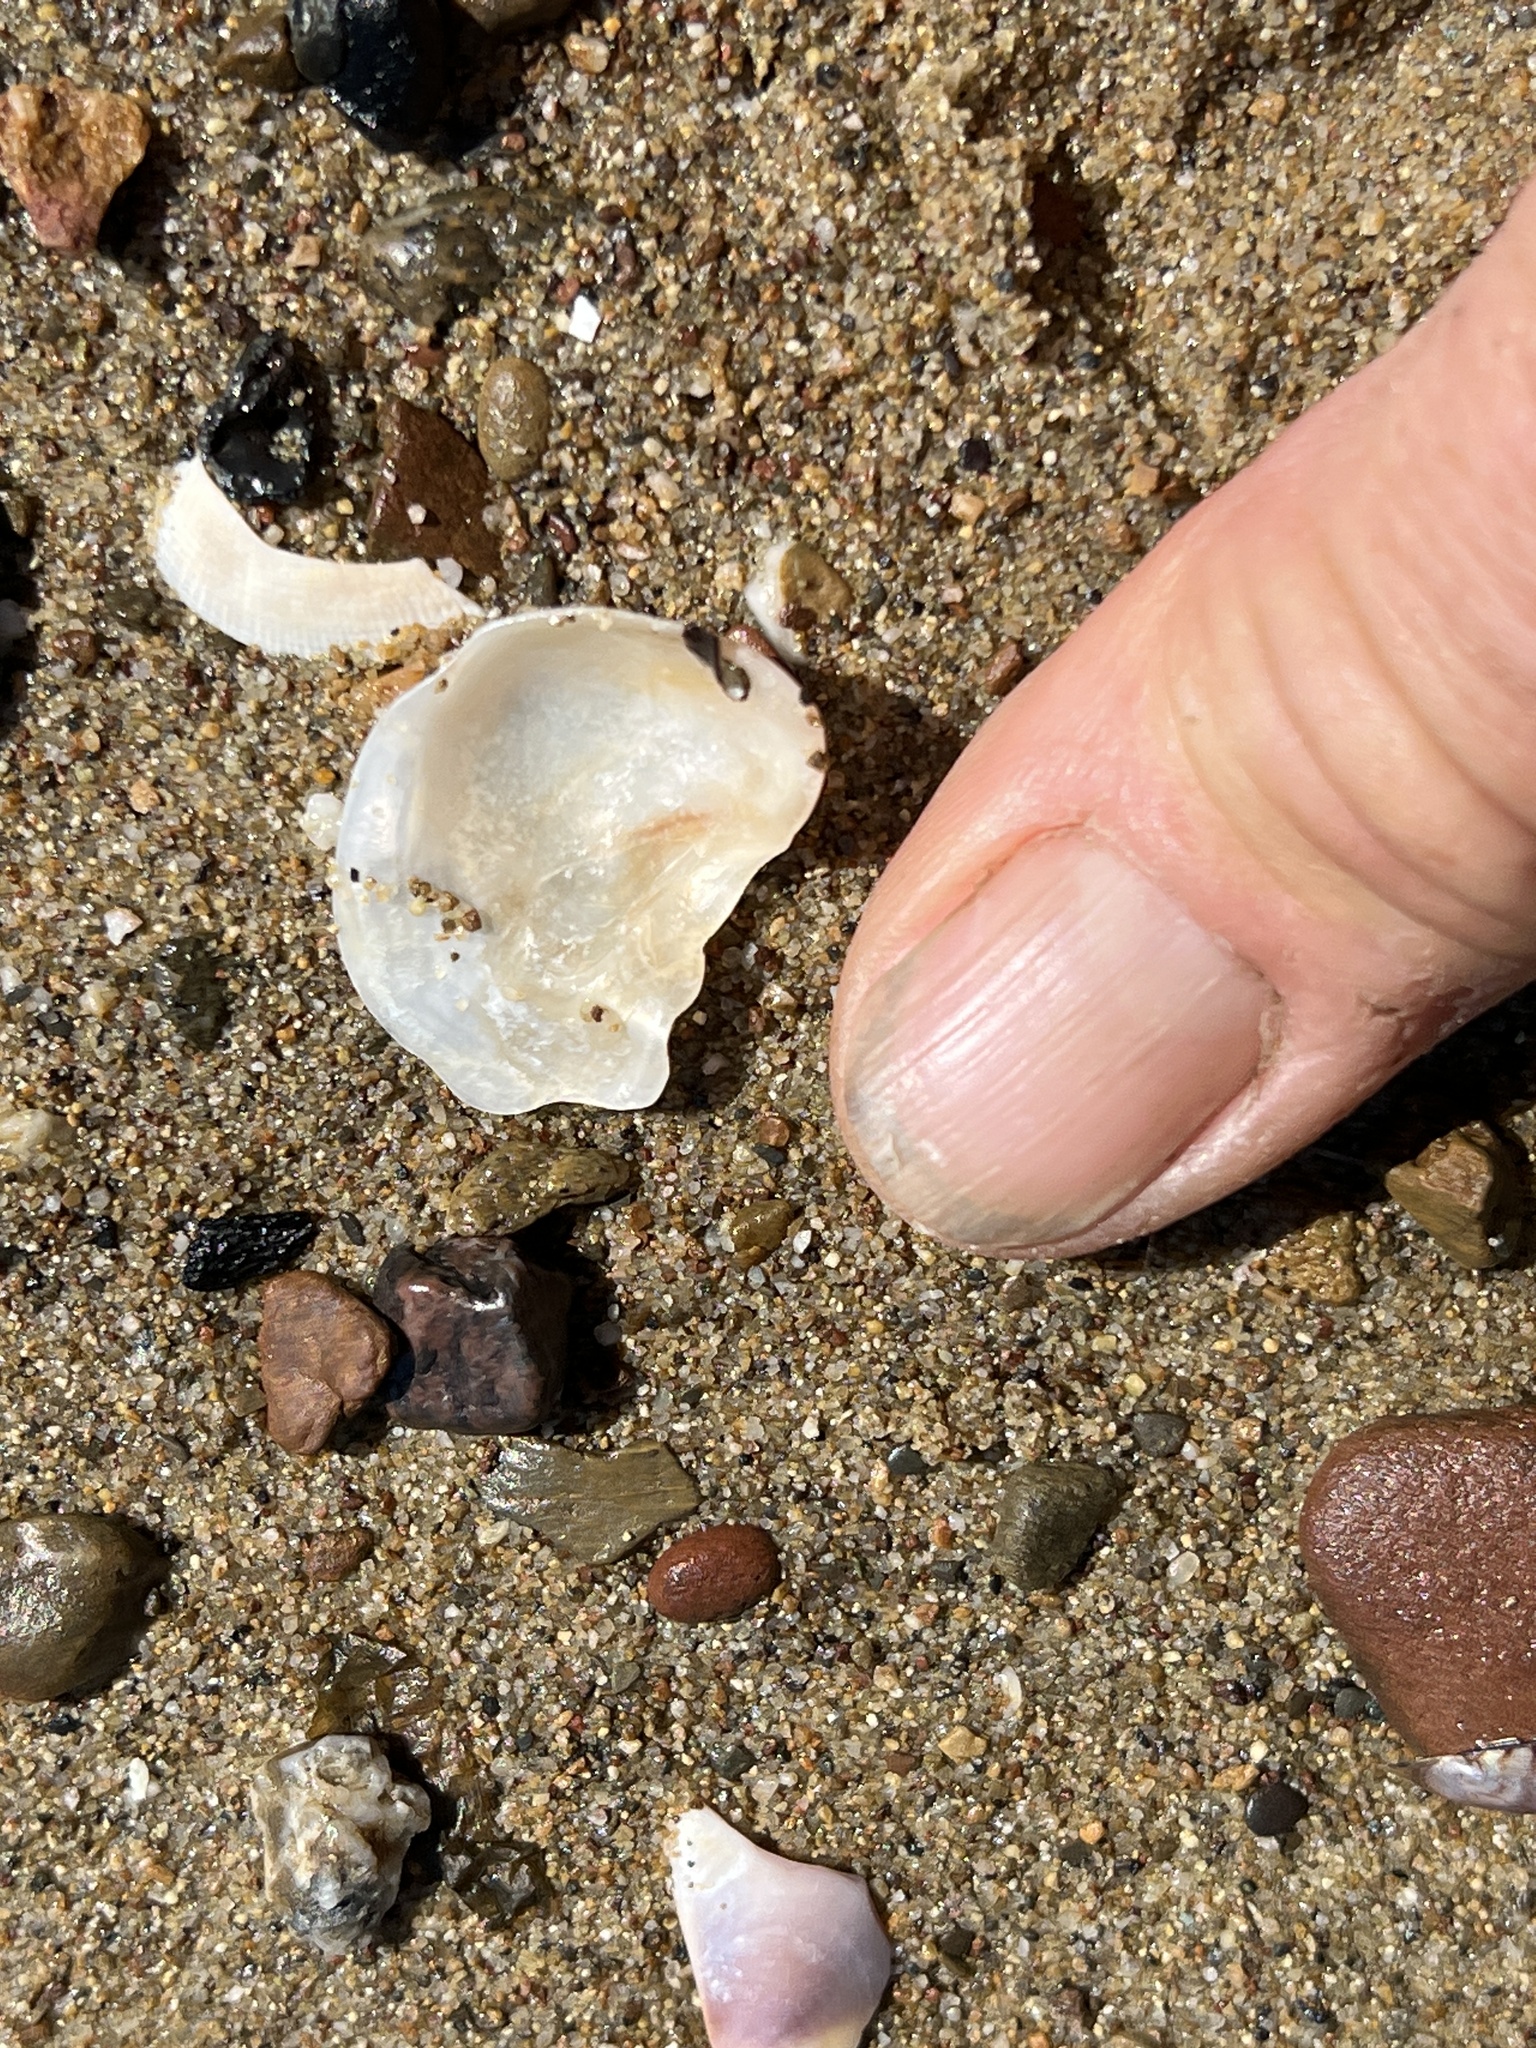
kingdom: Animalia
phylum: Mollusca
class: Bivalvia
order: Ostreida
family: Ostreidae
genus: Ostrea
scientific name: Ostrea lurida
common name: Olympia flat oyster
